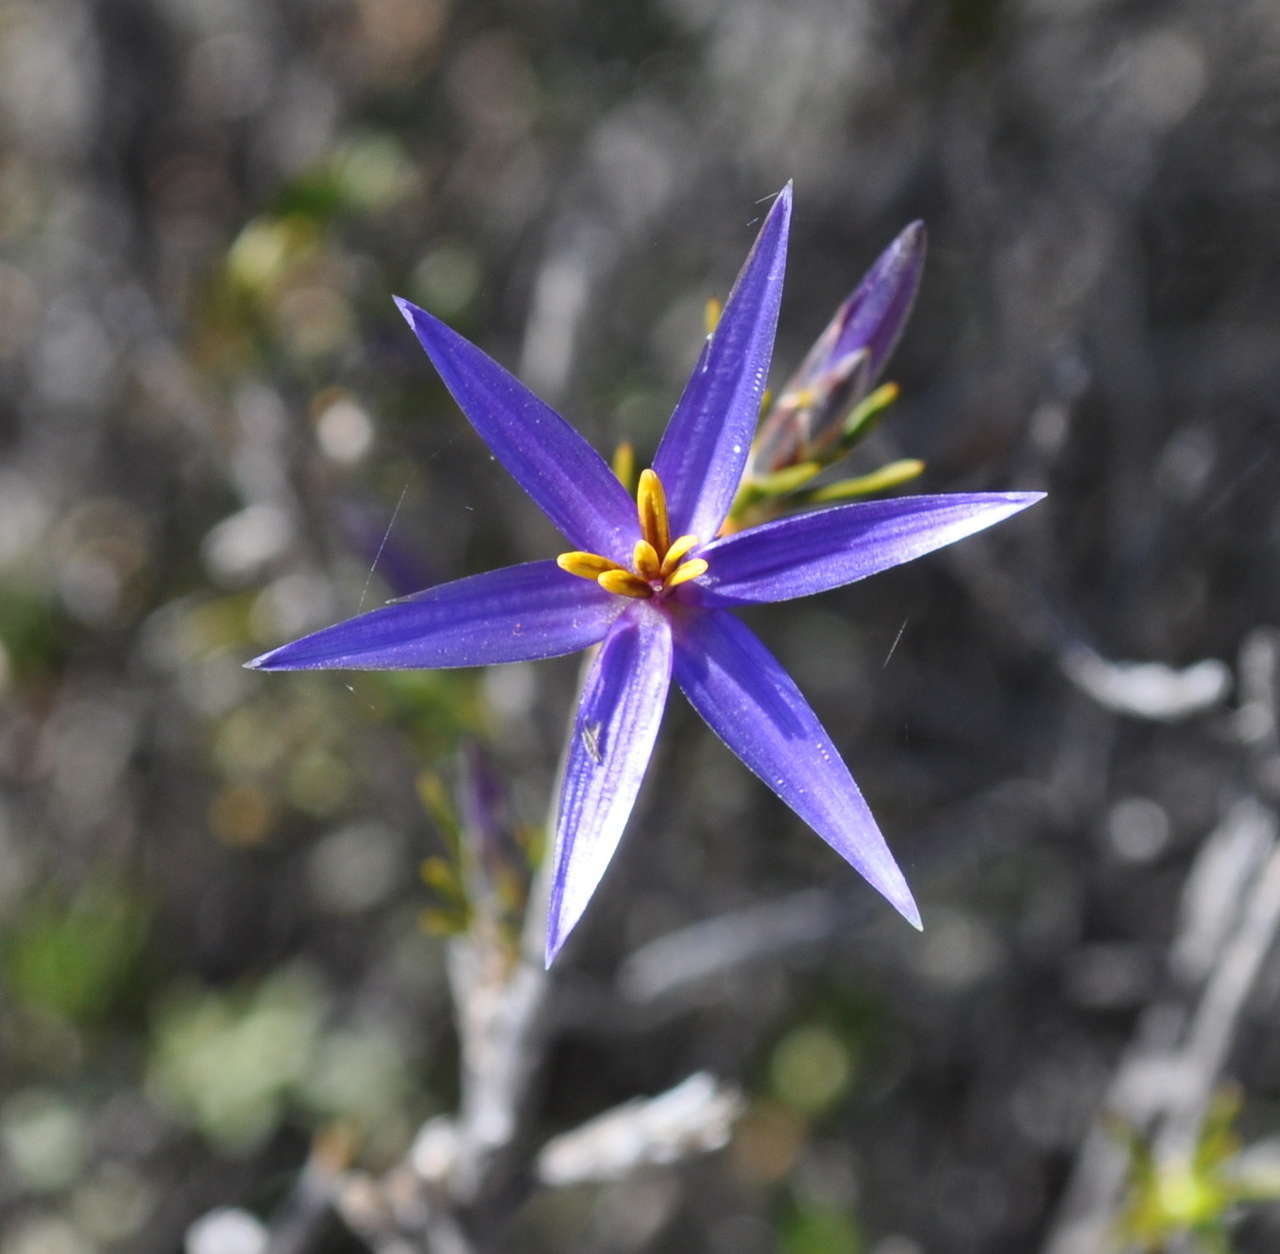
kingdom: Plantae
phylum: Tracheophyta
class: Liliopsida
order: Arecales
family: Dasypogonaceae
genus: Calectasia
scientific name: Calectasia intermedia
